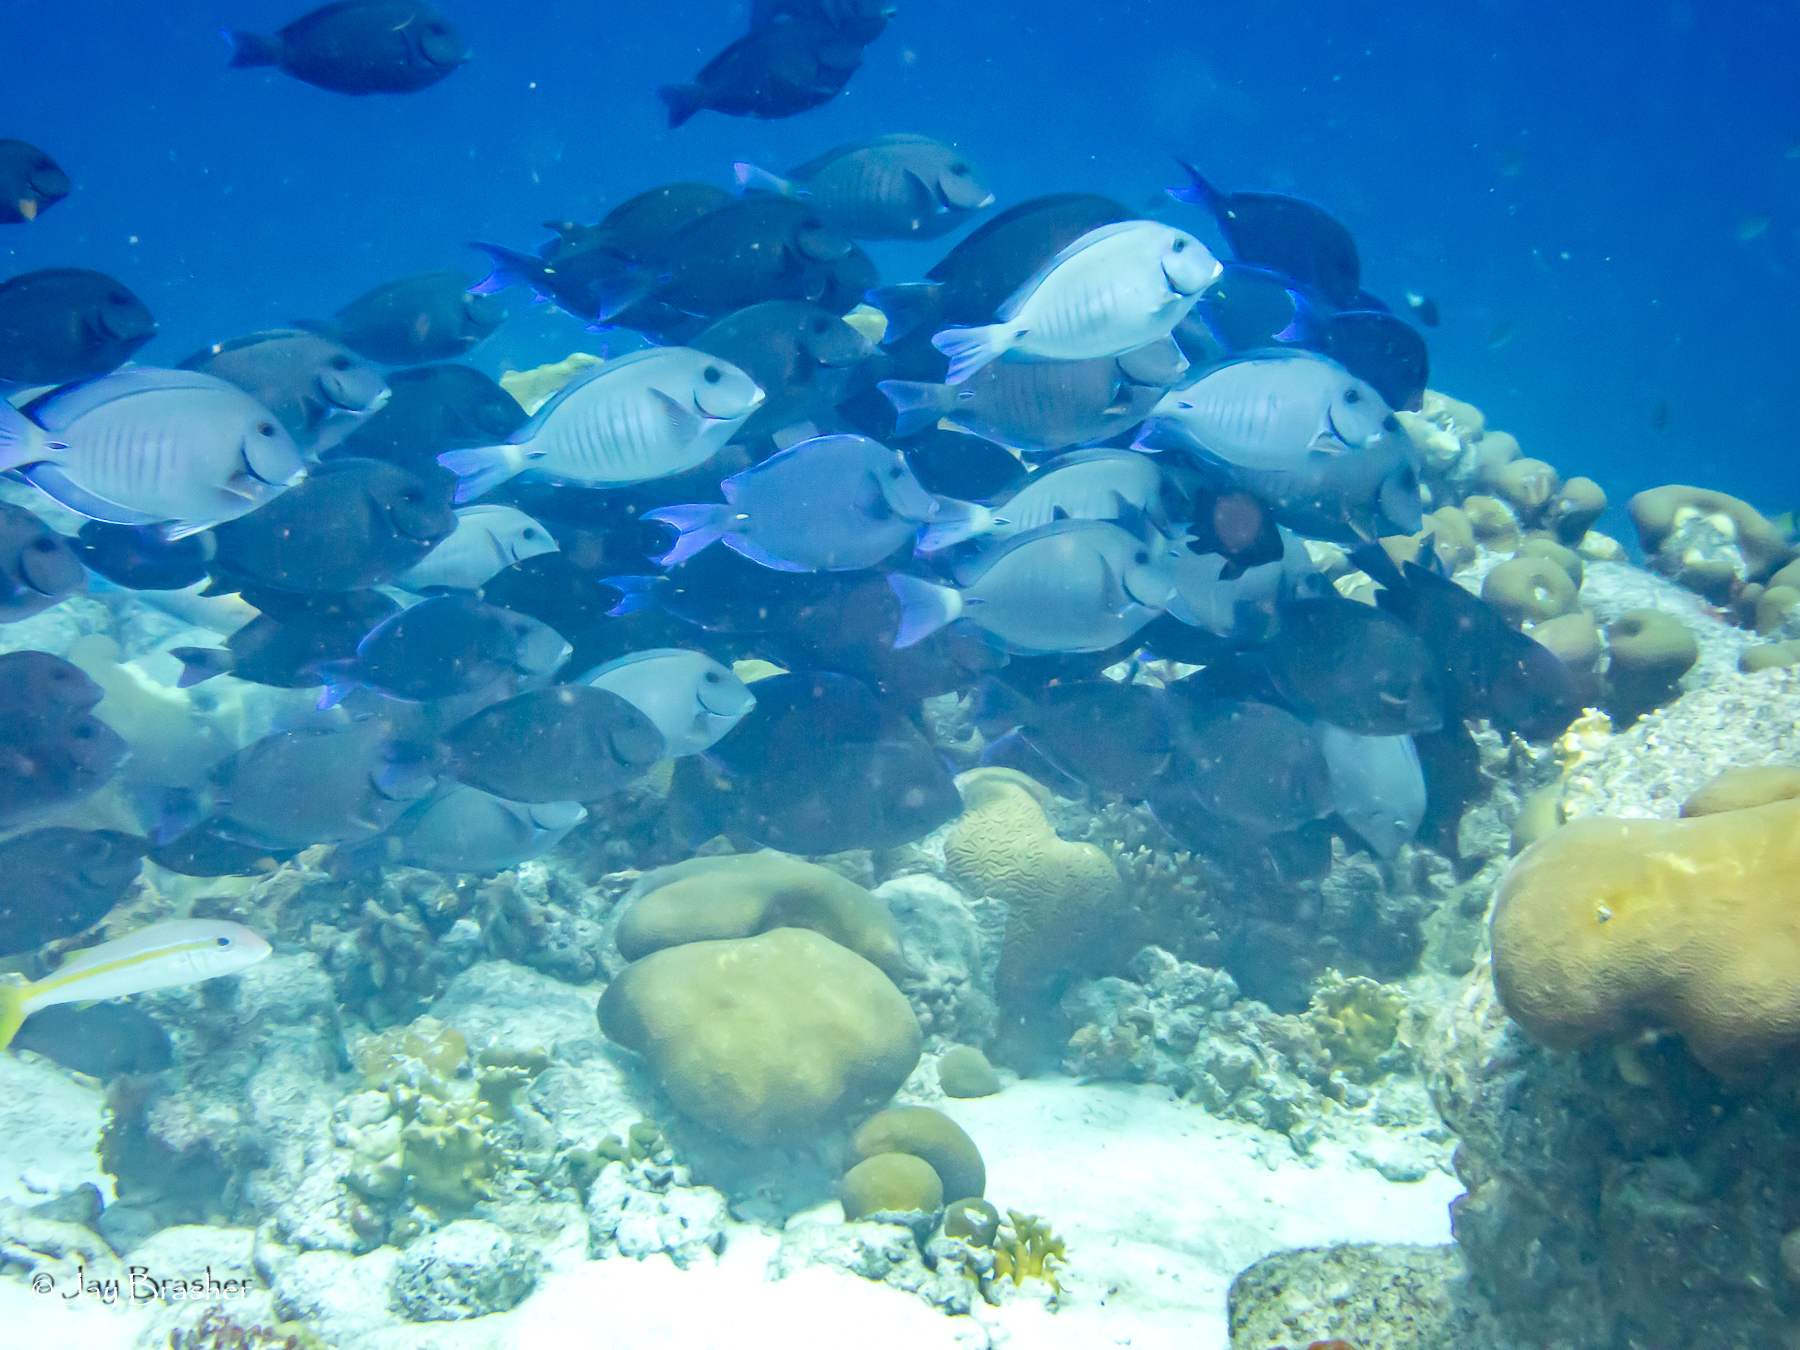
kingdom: Animalia
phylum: Chordata
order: Perciformes
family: Acanthuridae
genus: Acanthurus
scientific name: Acanthurus bahianus
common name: Ocean surgeon
